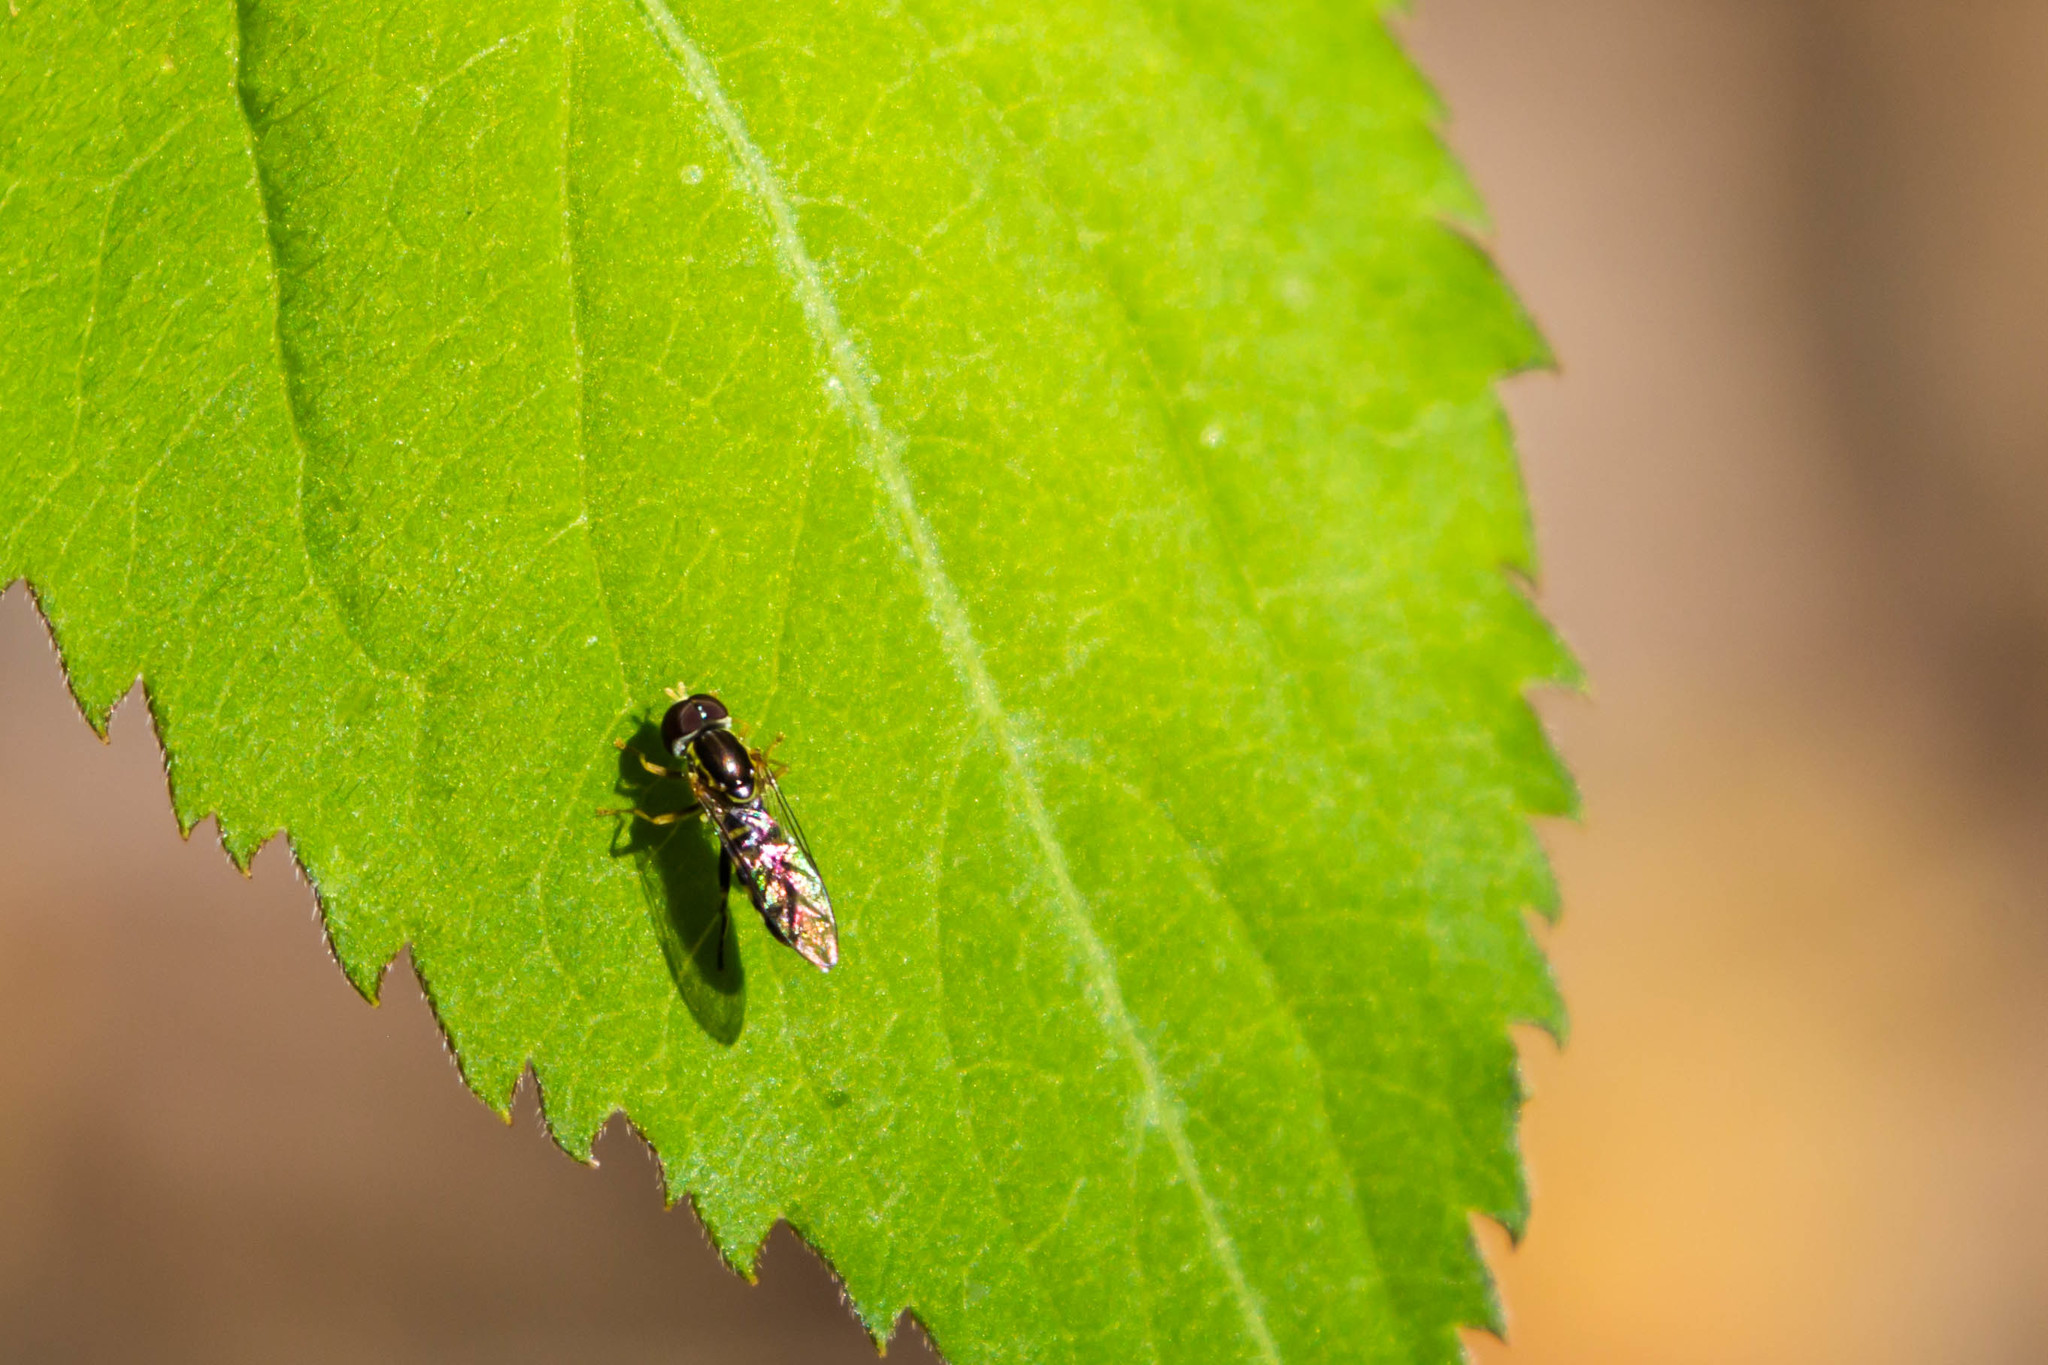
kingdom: Animalia
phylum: Arthropoda
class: Insecta
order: Diptera
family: Syrphidae
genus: Toxomerus
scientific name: Toxomerus geminatus
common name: Eastern calligrapher
